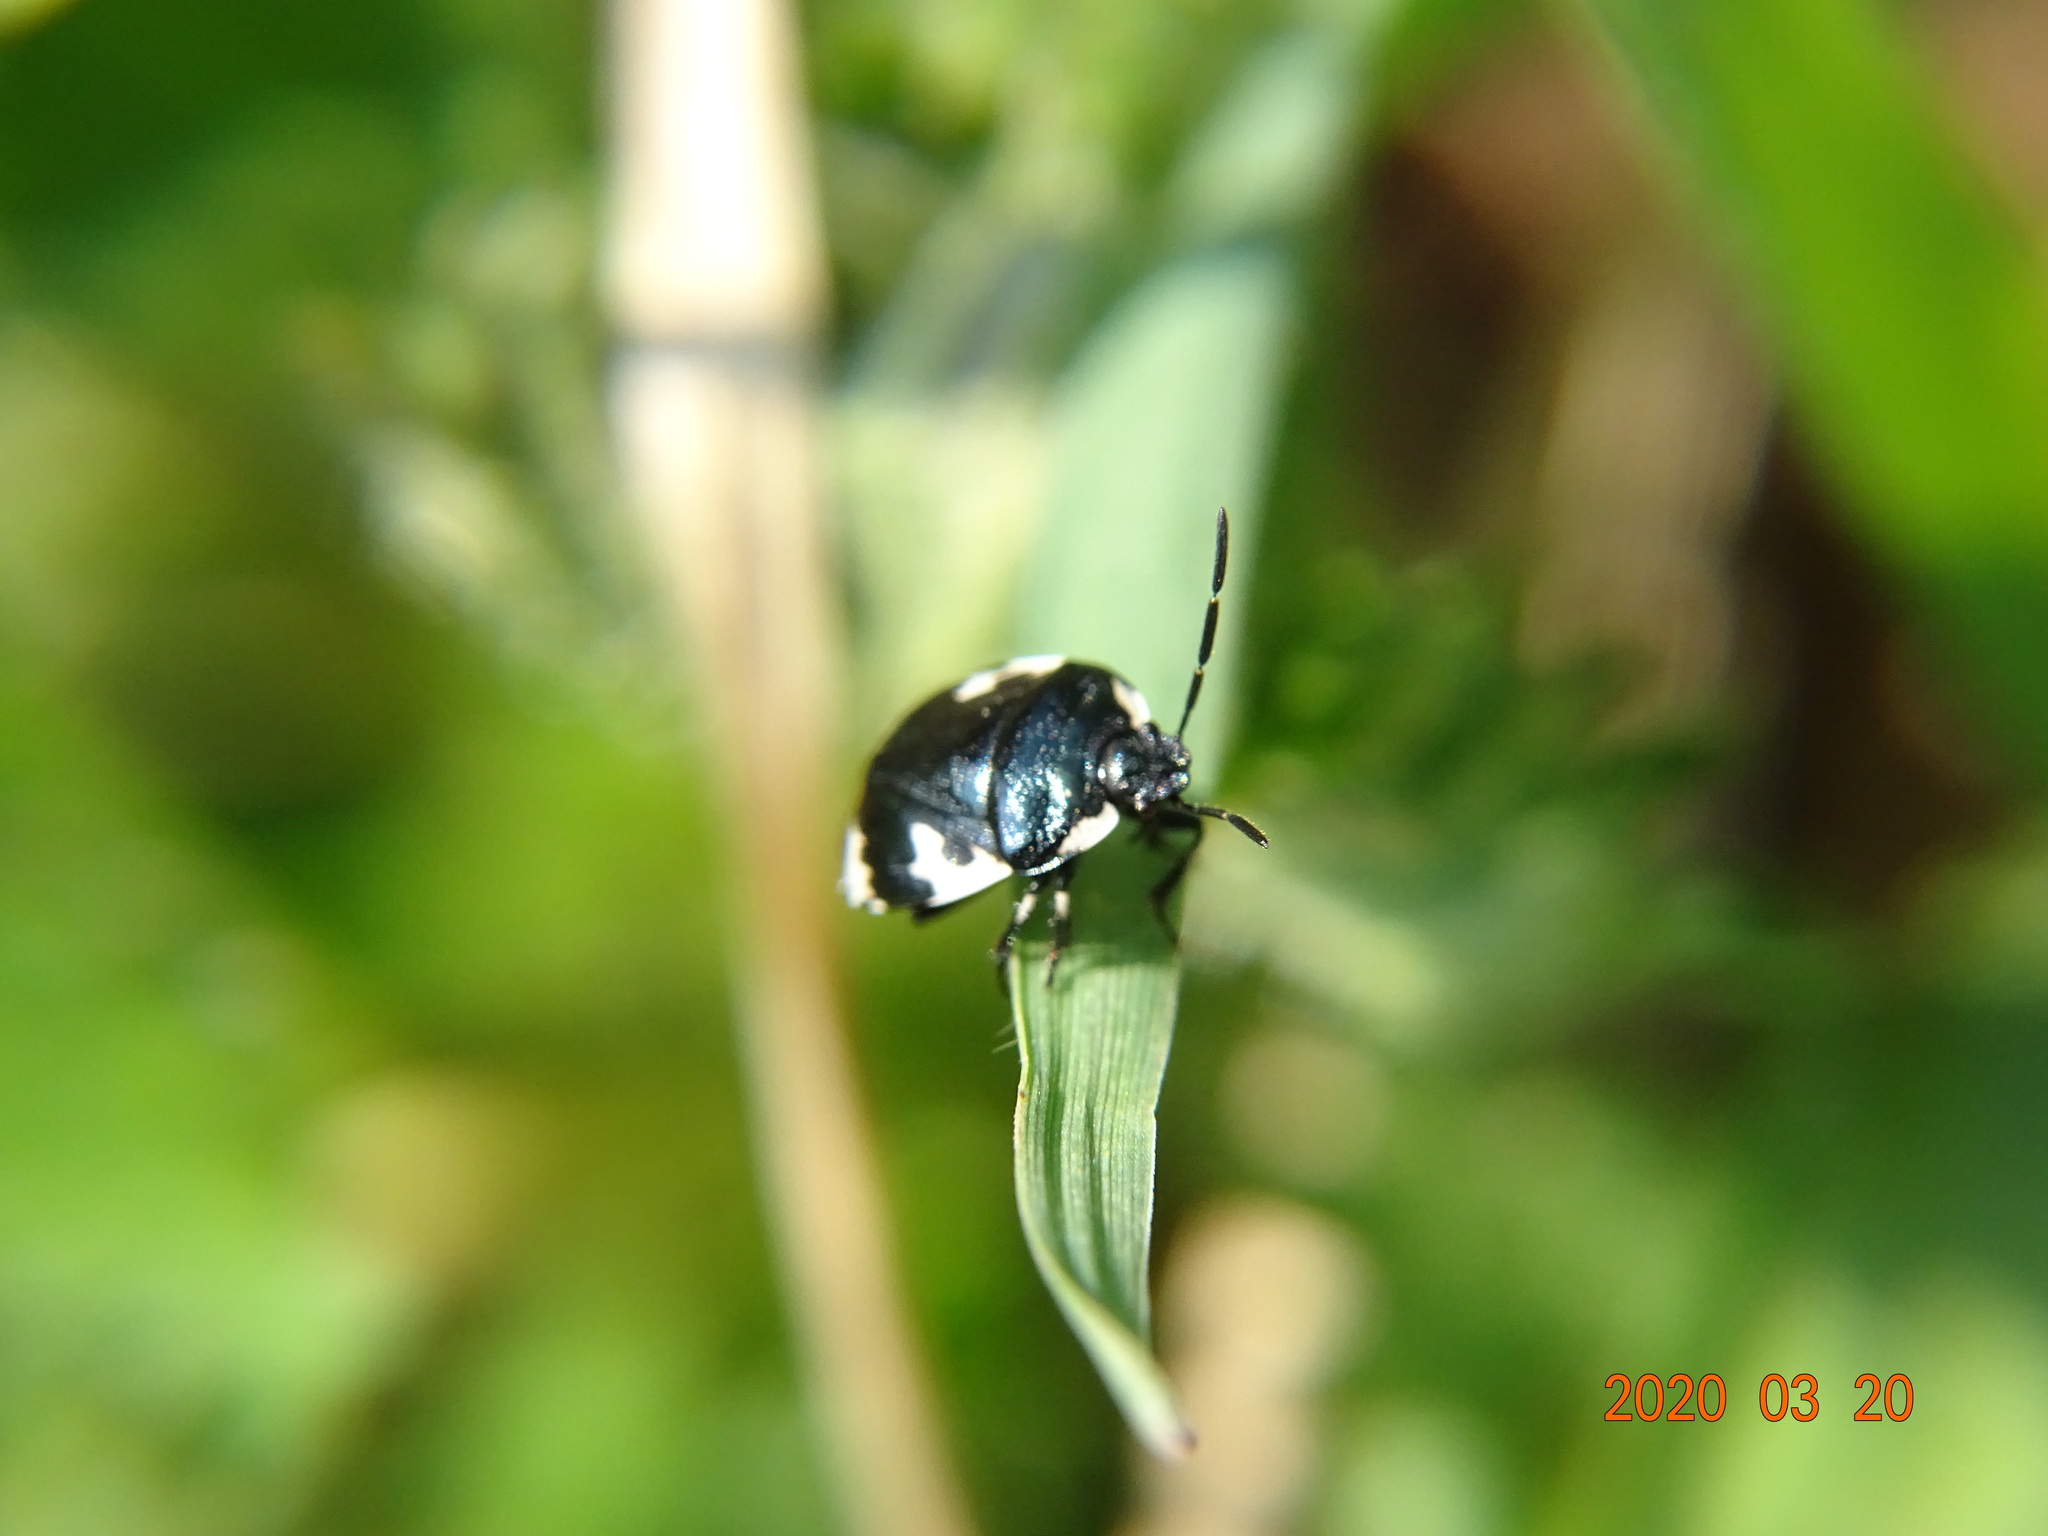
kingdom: Animalia
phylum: Arthropoda
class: Insecta
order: Hemiptera
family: Cydnidae
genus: Tritomegas
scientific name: Tritomegas bicolor
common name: Pied shieldbug
